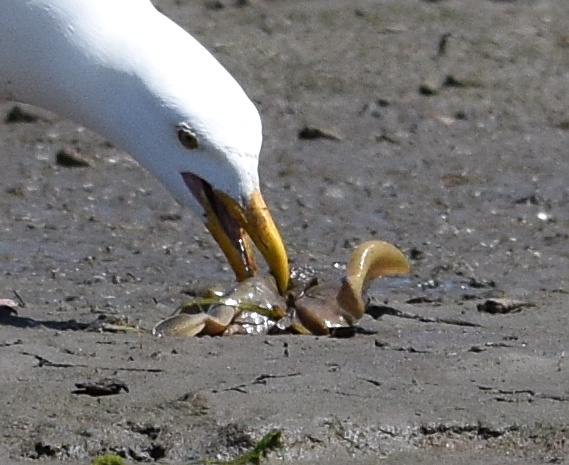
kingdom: Animalia
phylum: Chordata
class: Elasmobranchii
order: Myliobatiformes
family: Urolophidae
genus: Urolophus
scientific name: Urolophus halleri
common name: Round stingray
